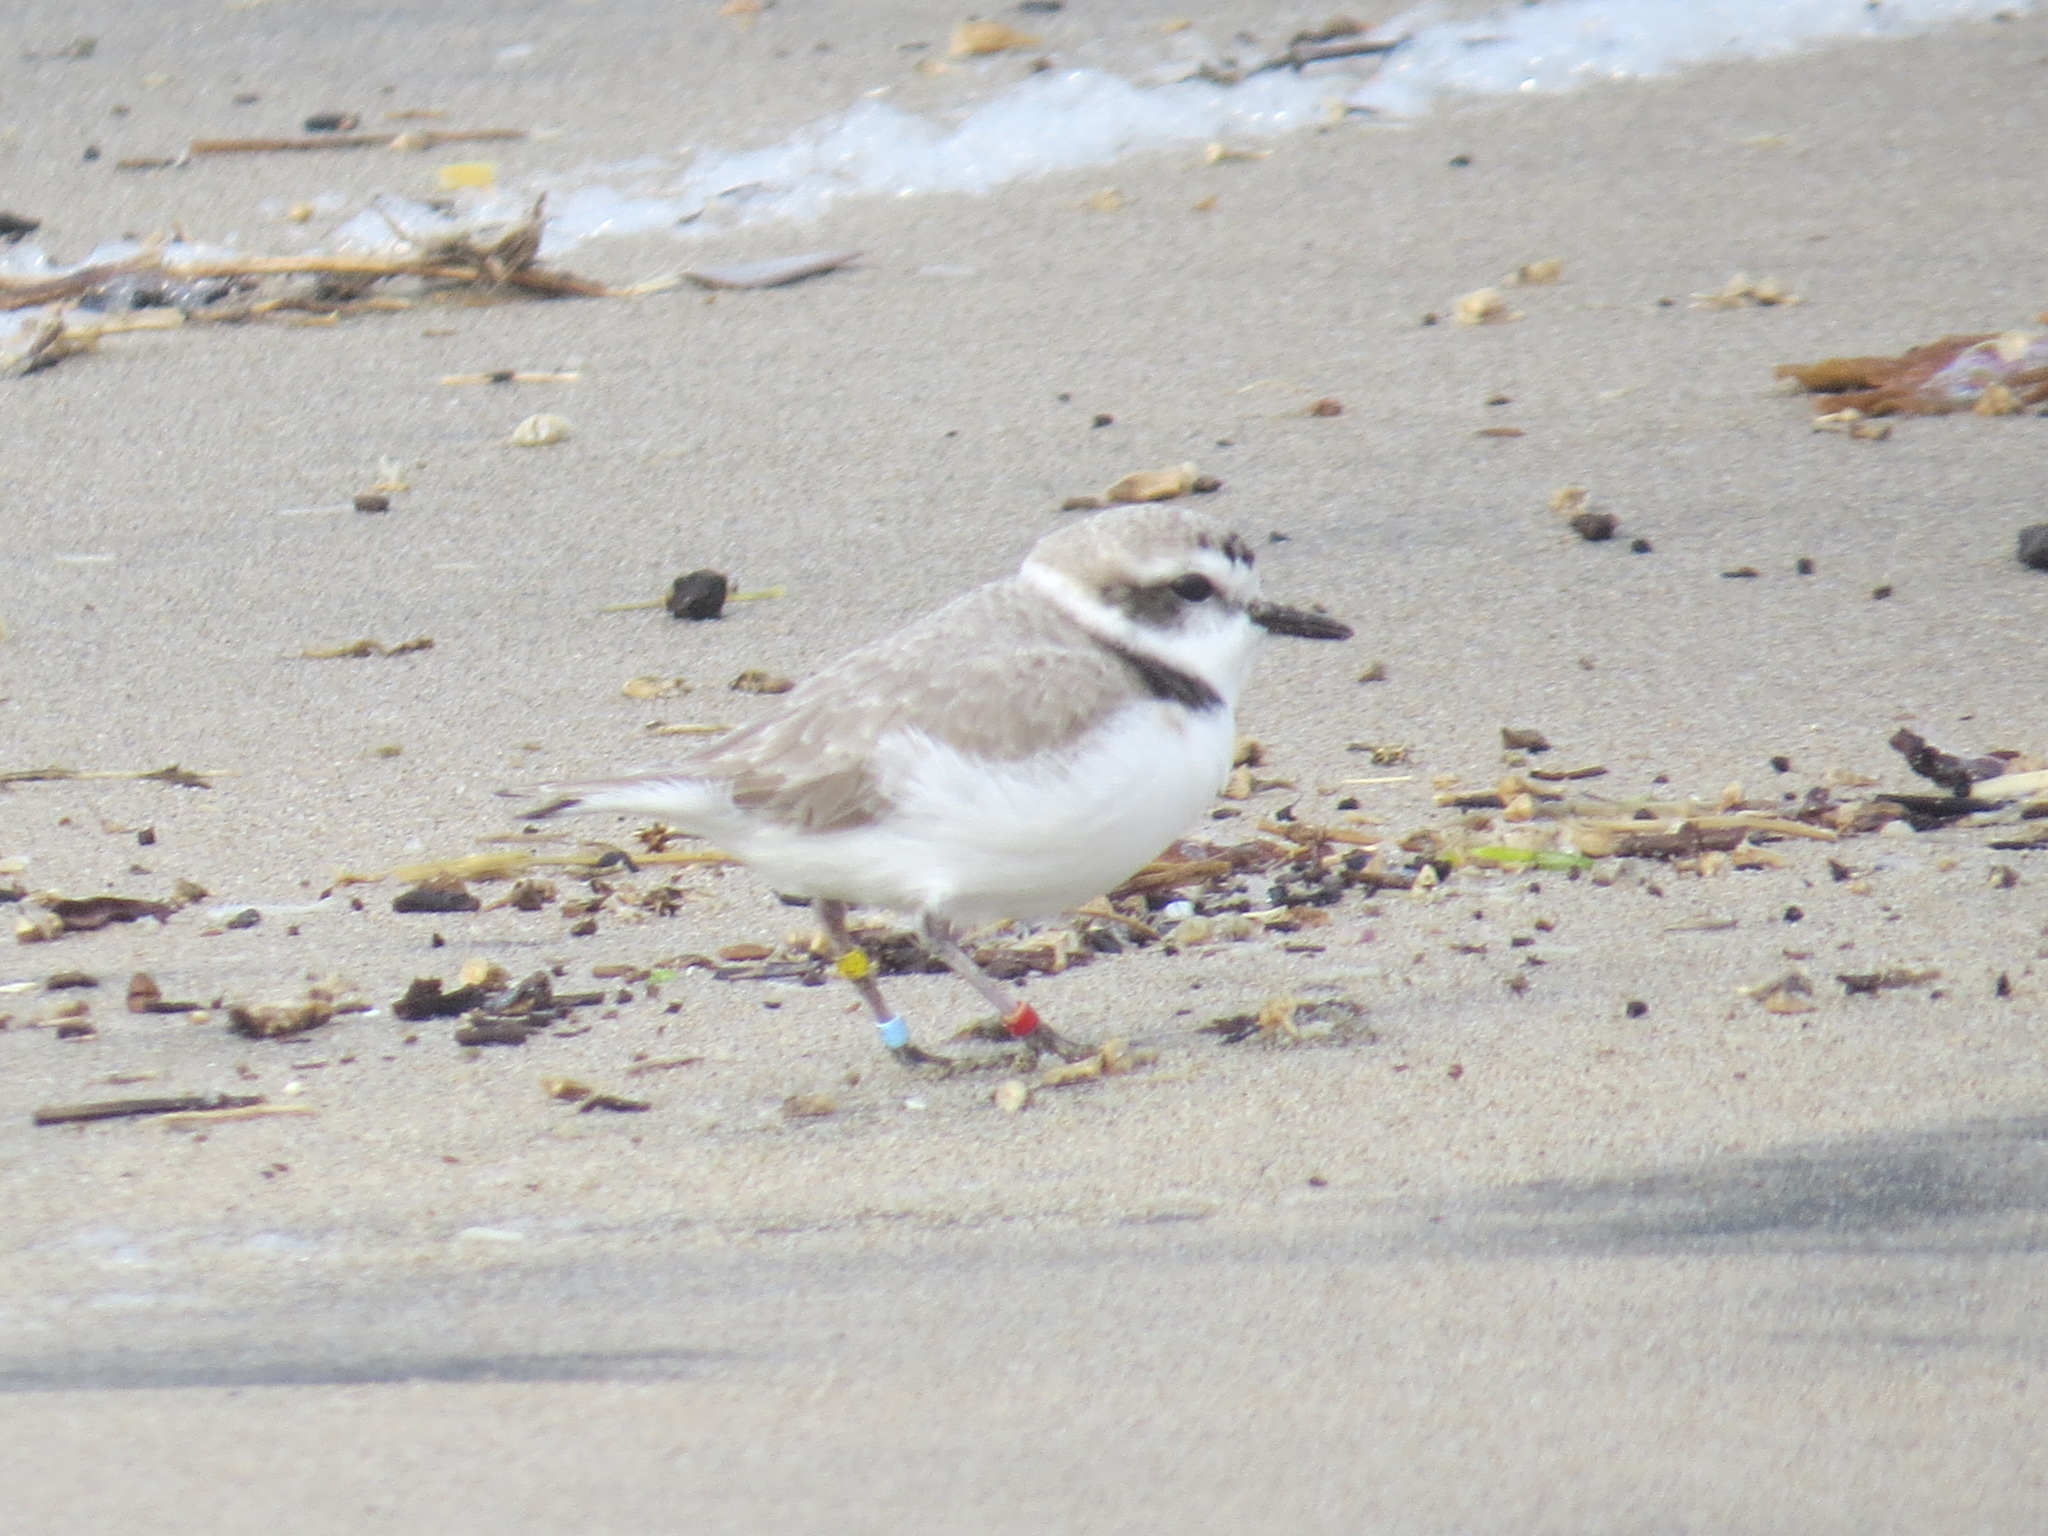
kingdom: Animalia
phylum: Chordata
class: Aves
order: Charadriiformes
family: Charadriidae
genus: Anarhynchus
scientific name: Anarhynchus
